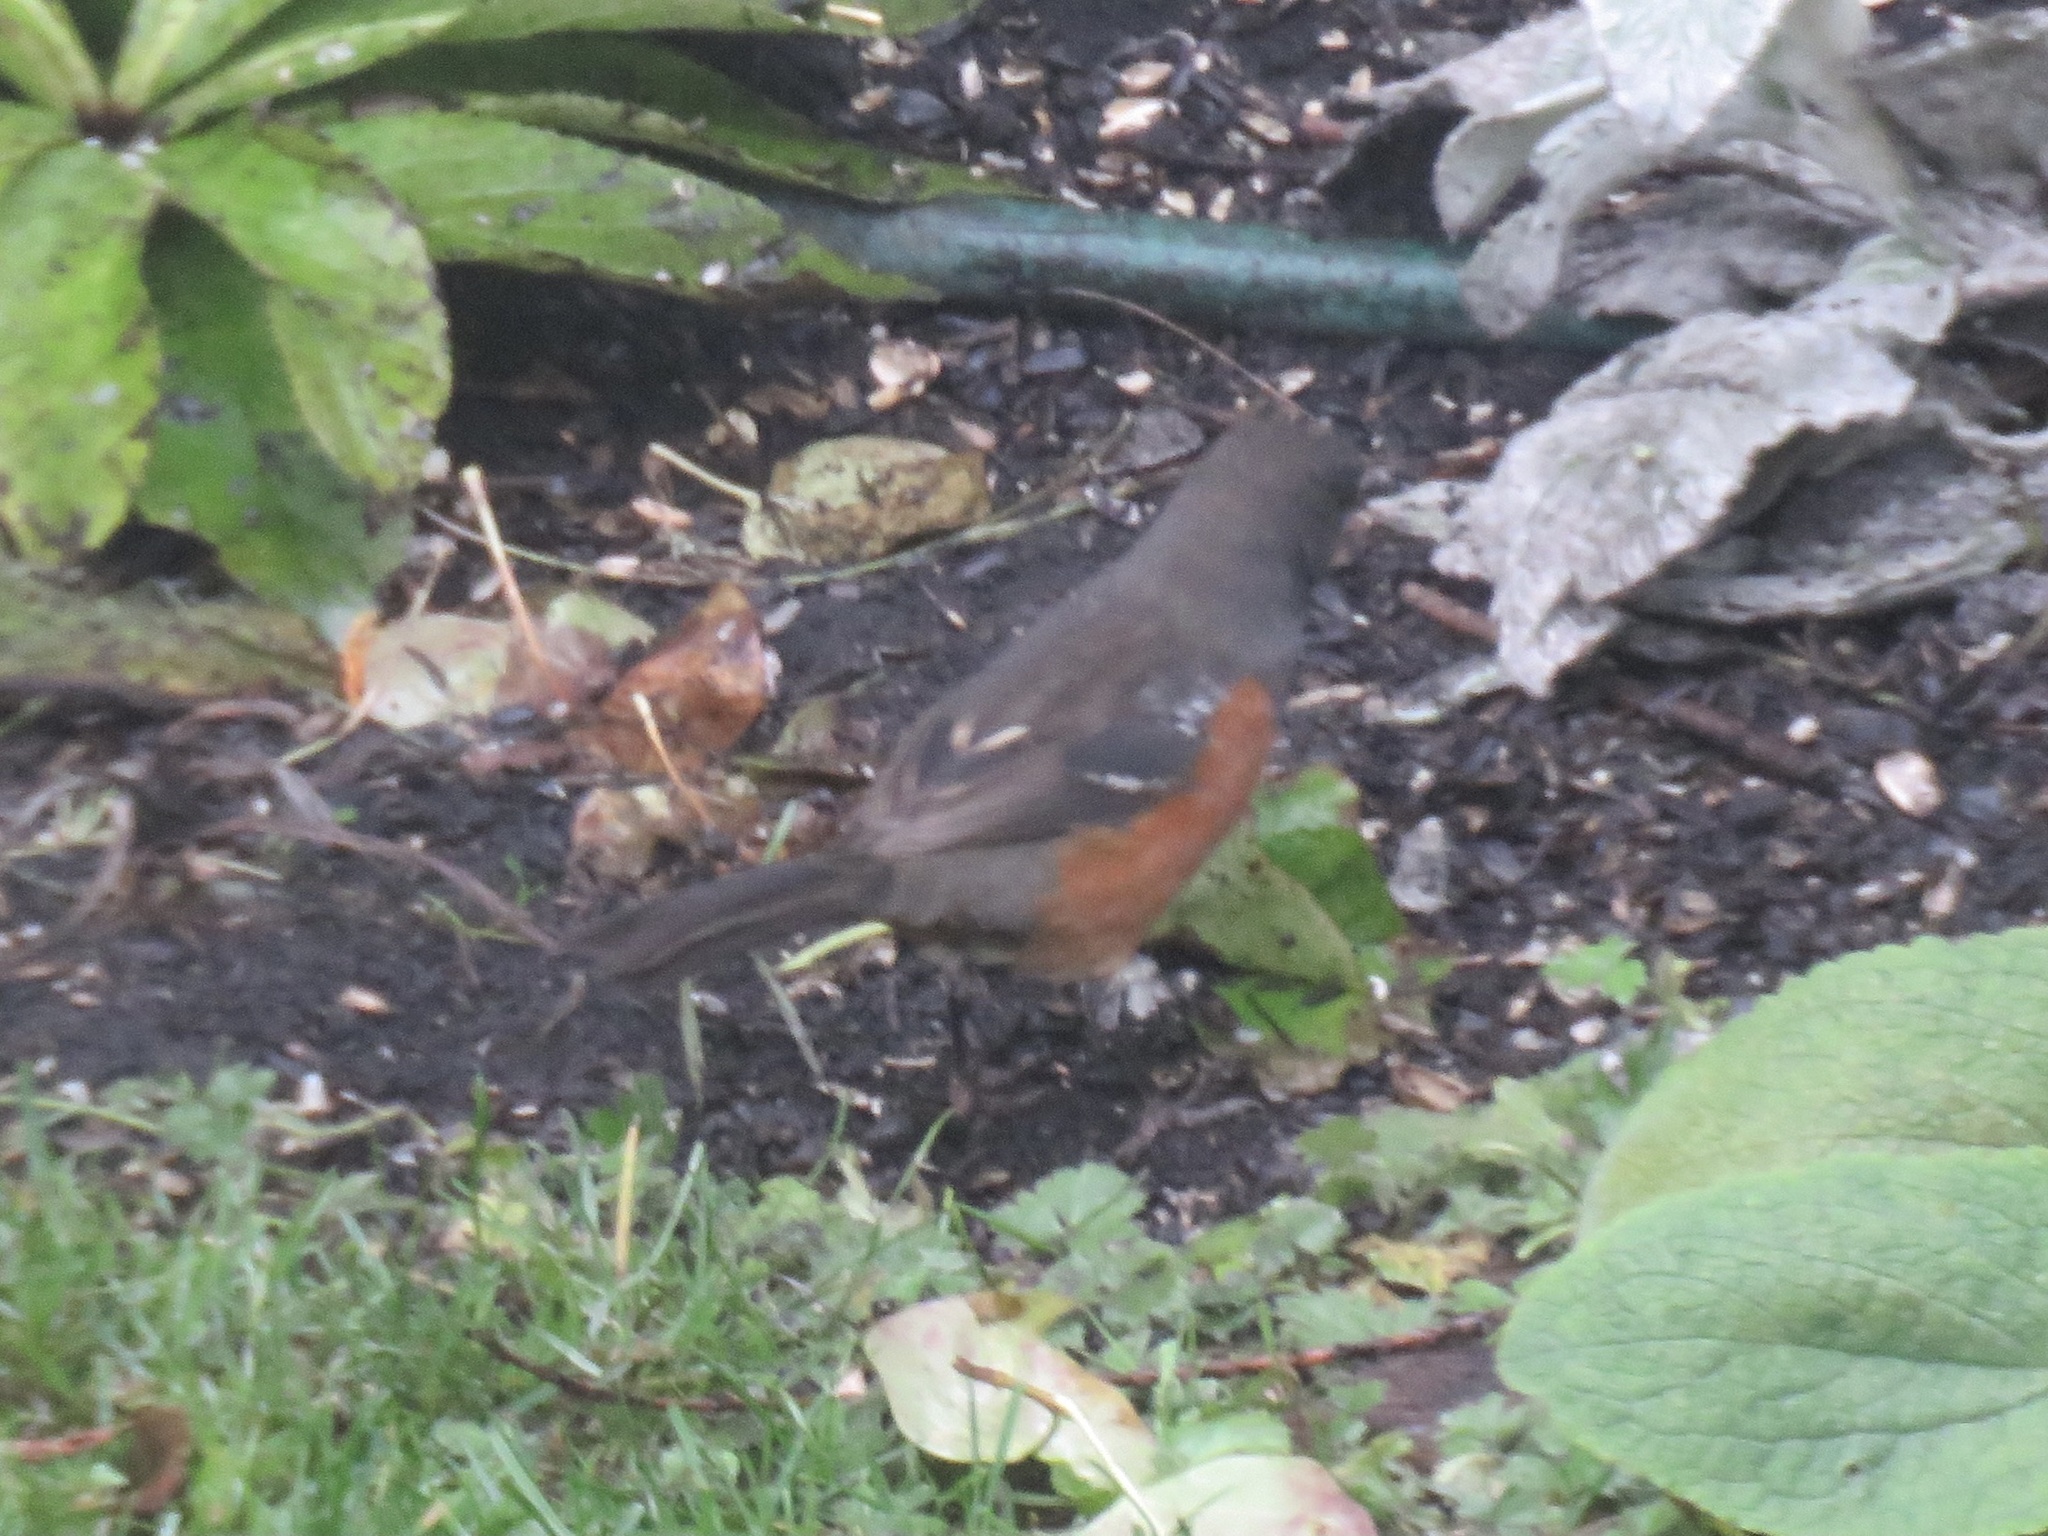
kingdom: Animalia
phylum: Chordata
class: Aves
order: Passeriformes
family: Passerellidae
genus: Pipilo
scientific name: Pipilo maculatus
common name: Spotted towhee
